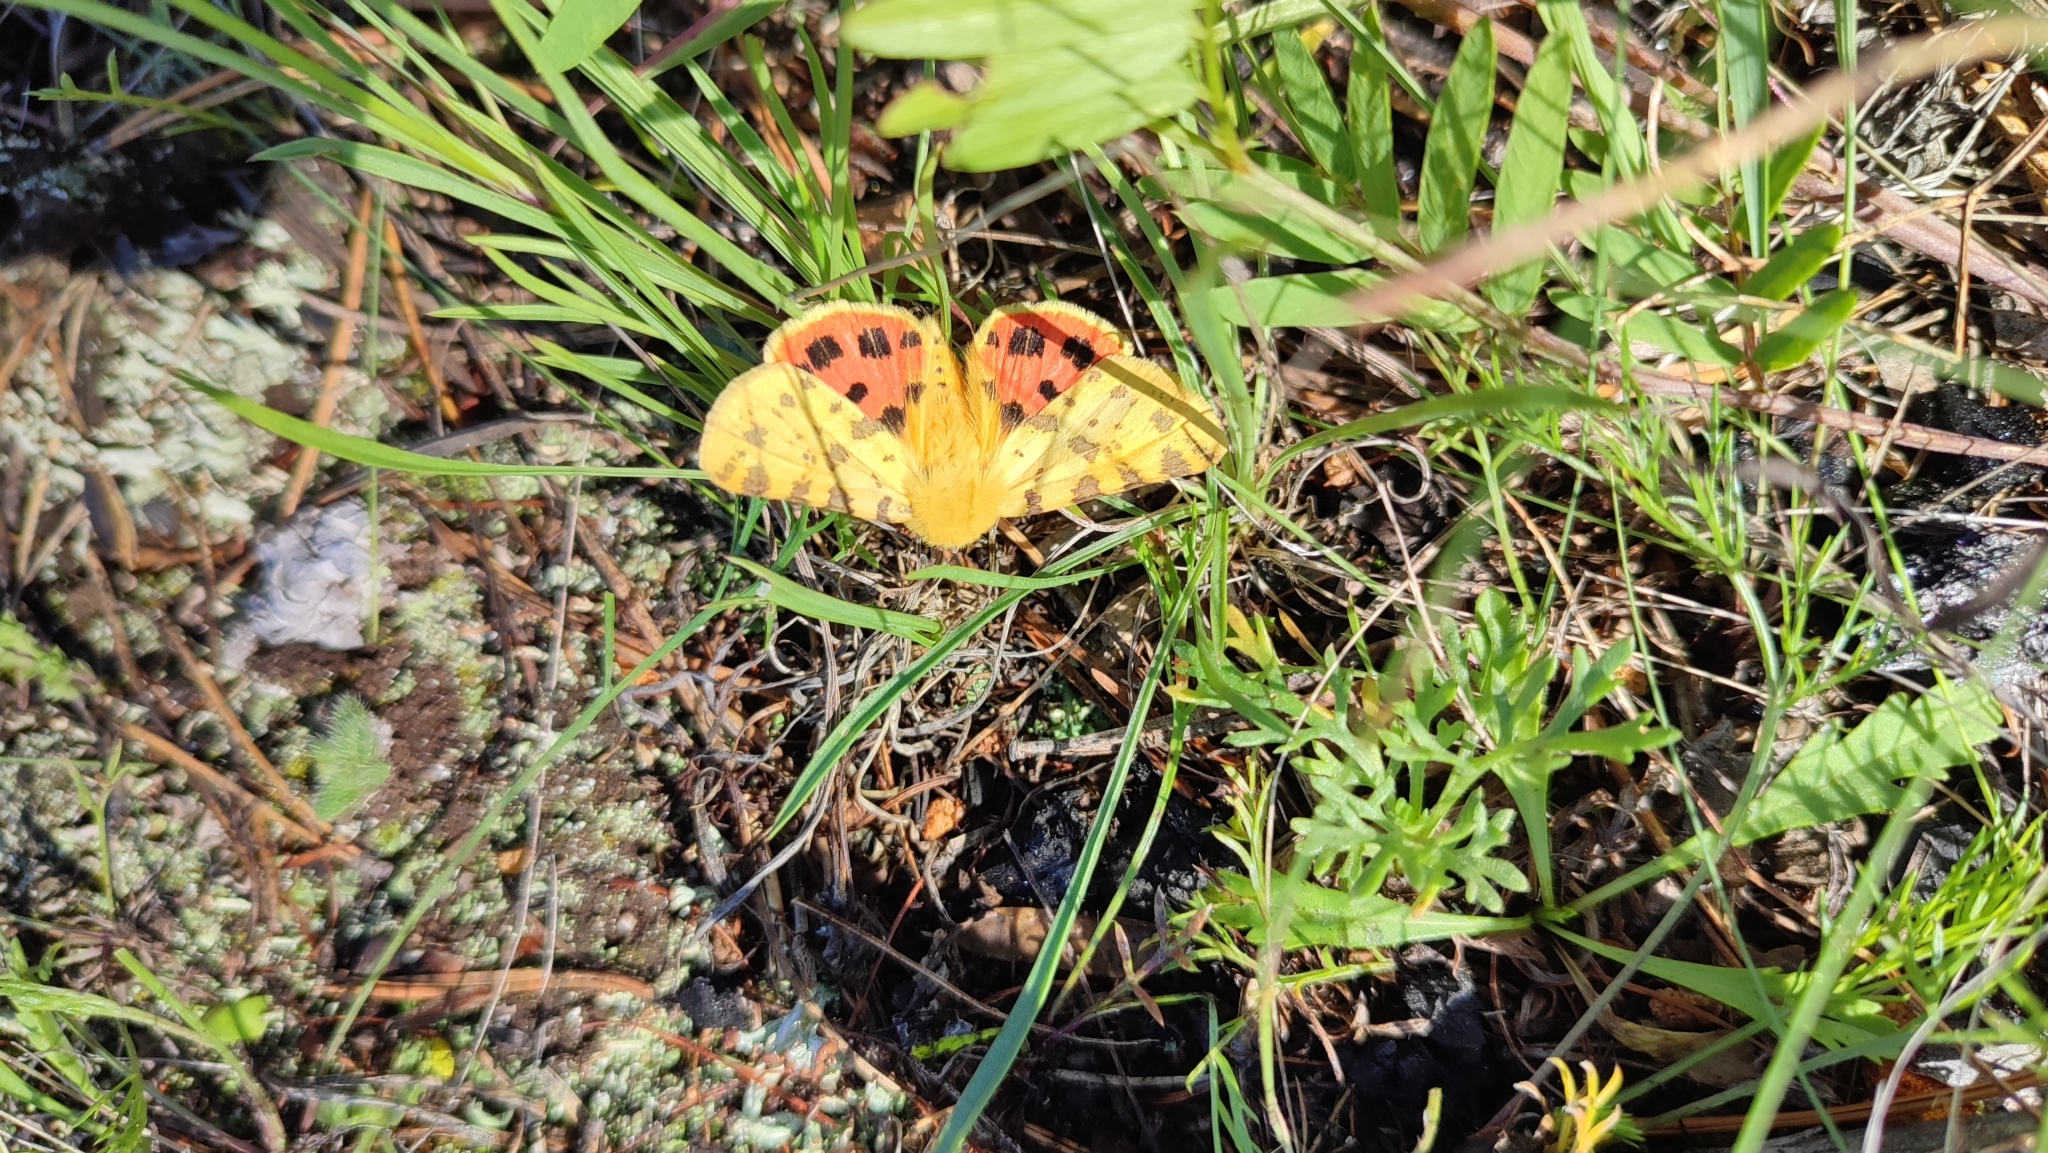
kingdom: Animalia
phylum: Arthropoda
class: Insecta
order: Lepidoptera
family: Erebidae
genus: Rhyparia
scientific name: Rhyparia purpurata
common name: Purple tiger
